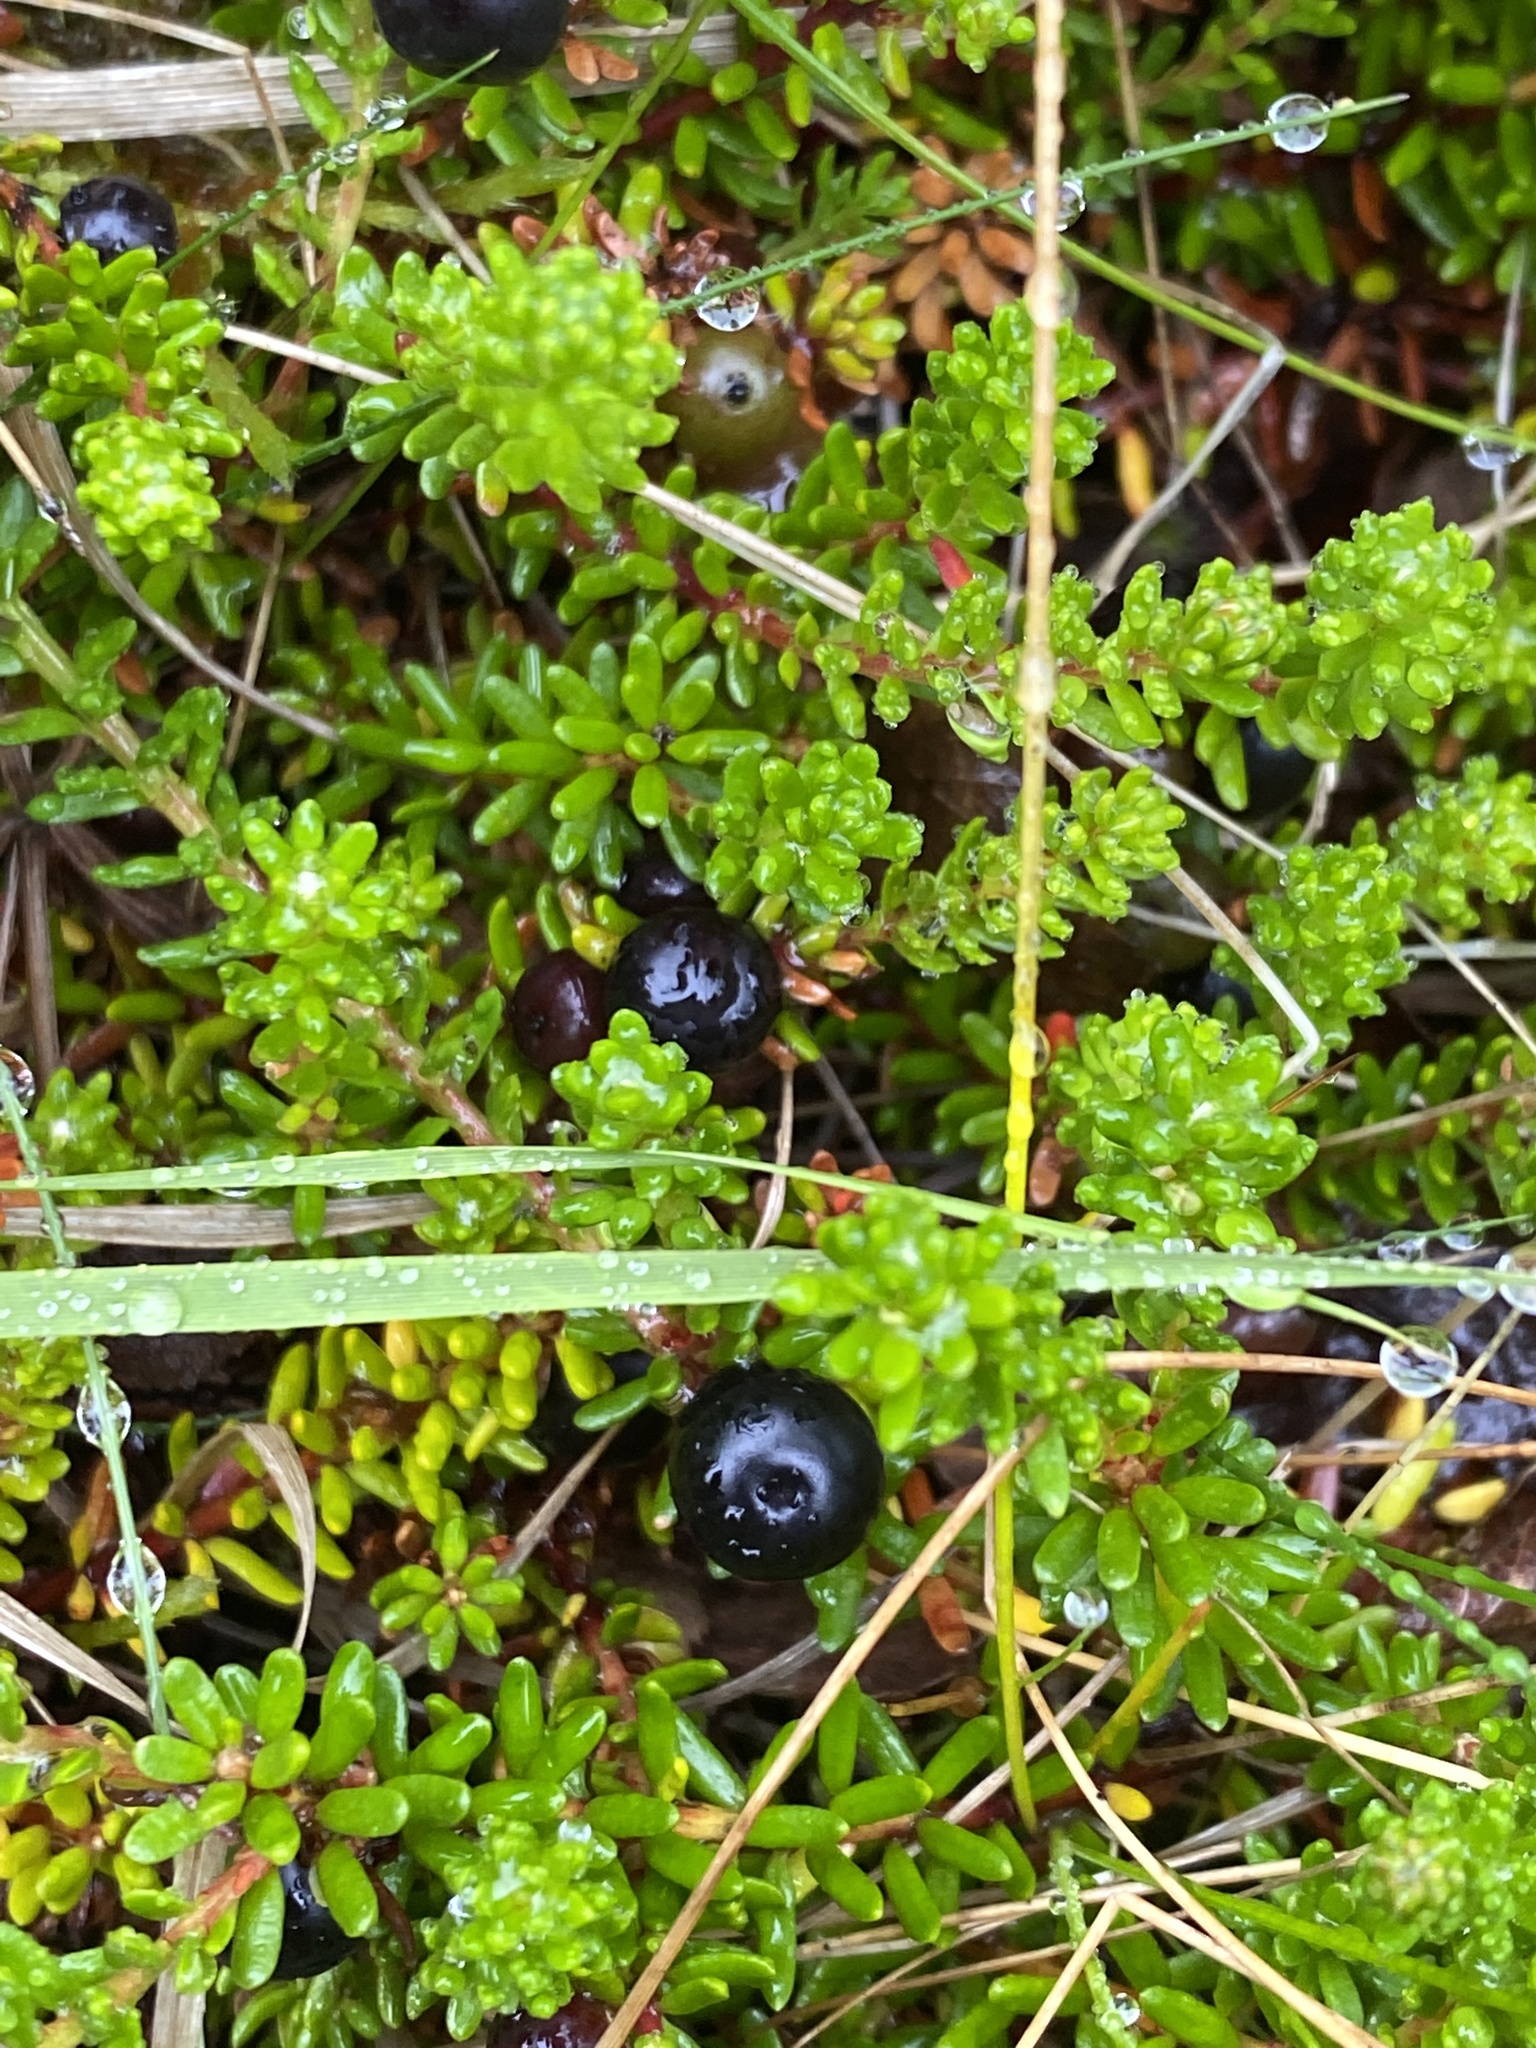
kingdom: Plantae
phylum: Tracheophyta
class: Magnoliopsida
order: Ericales
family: Ericaceae
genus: Empetrum
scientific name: Empetrum nigrum
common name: Black crowberry
